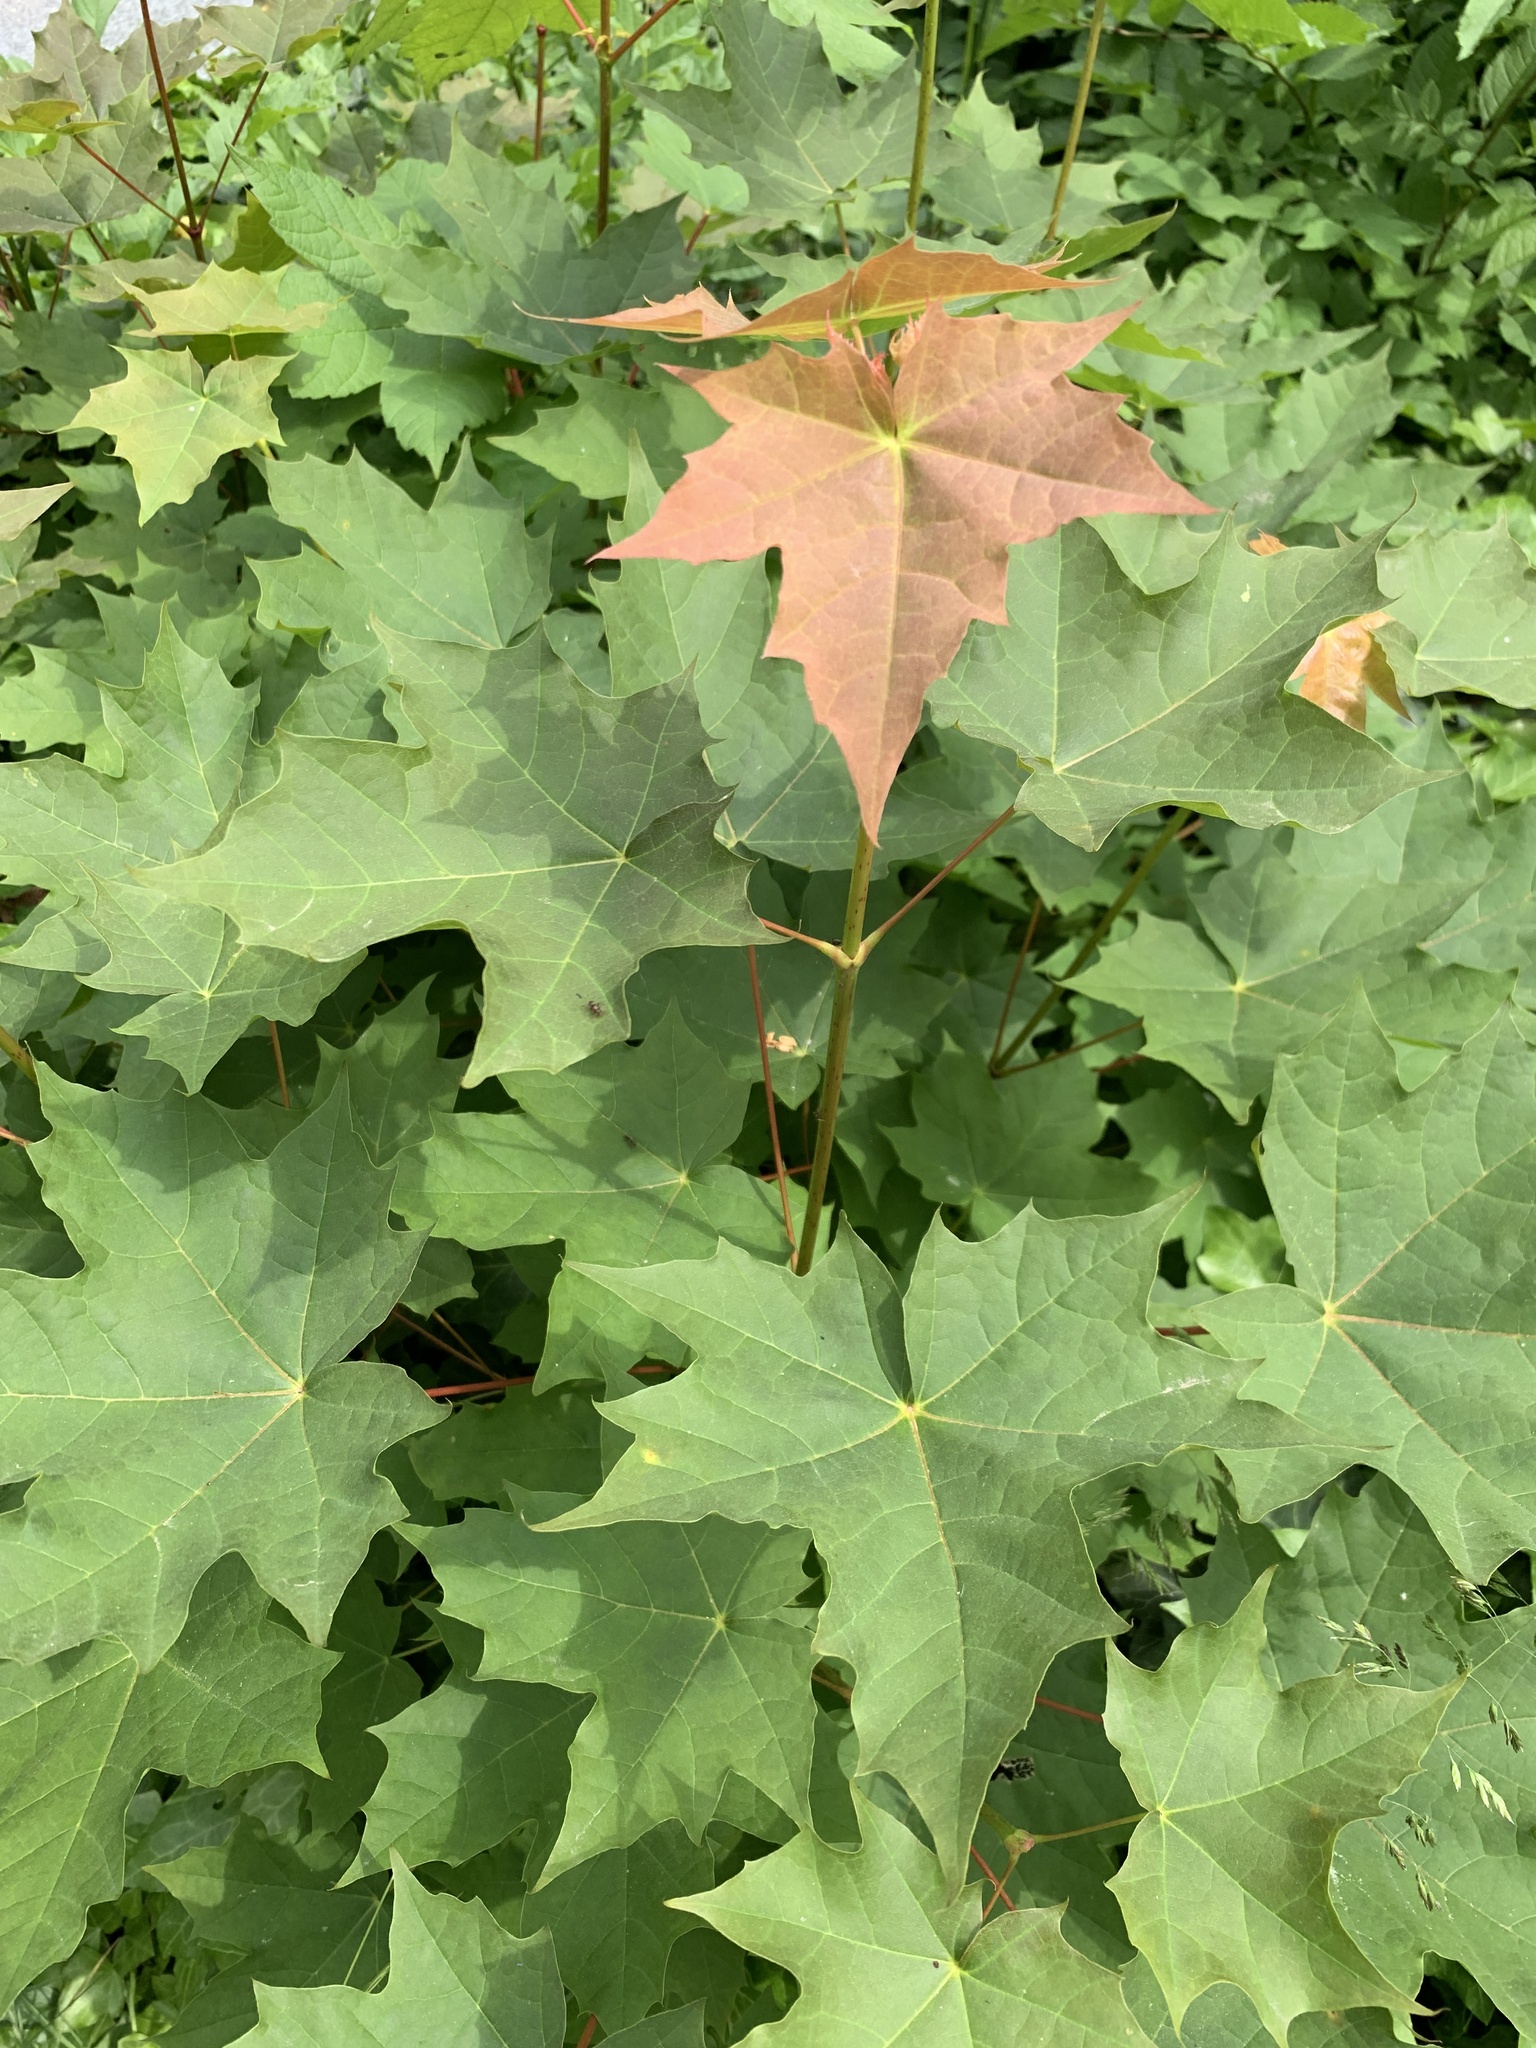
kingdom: Plantae
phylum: Tracheophyta
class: Magnoliopsida
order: Sapindales
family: Sapindaceae
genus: Acer
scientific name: Acer platanoides
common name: Norway maple
